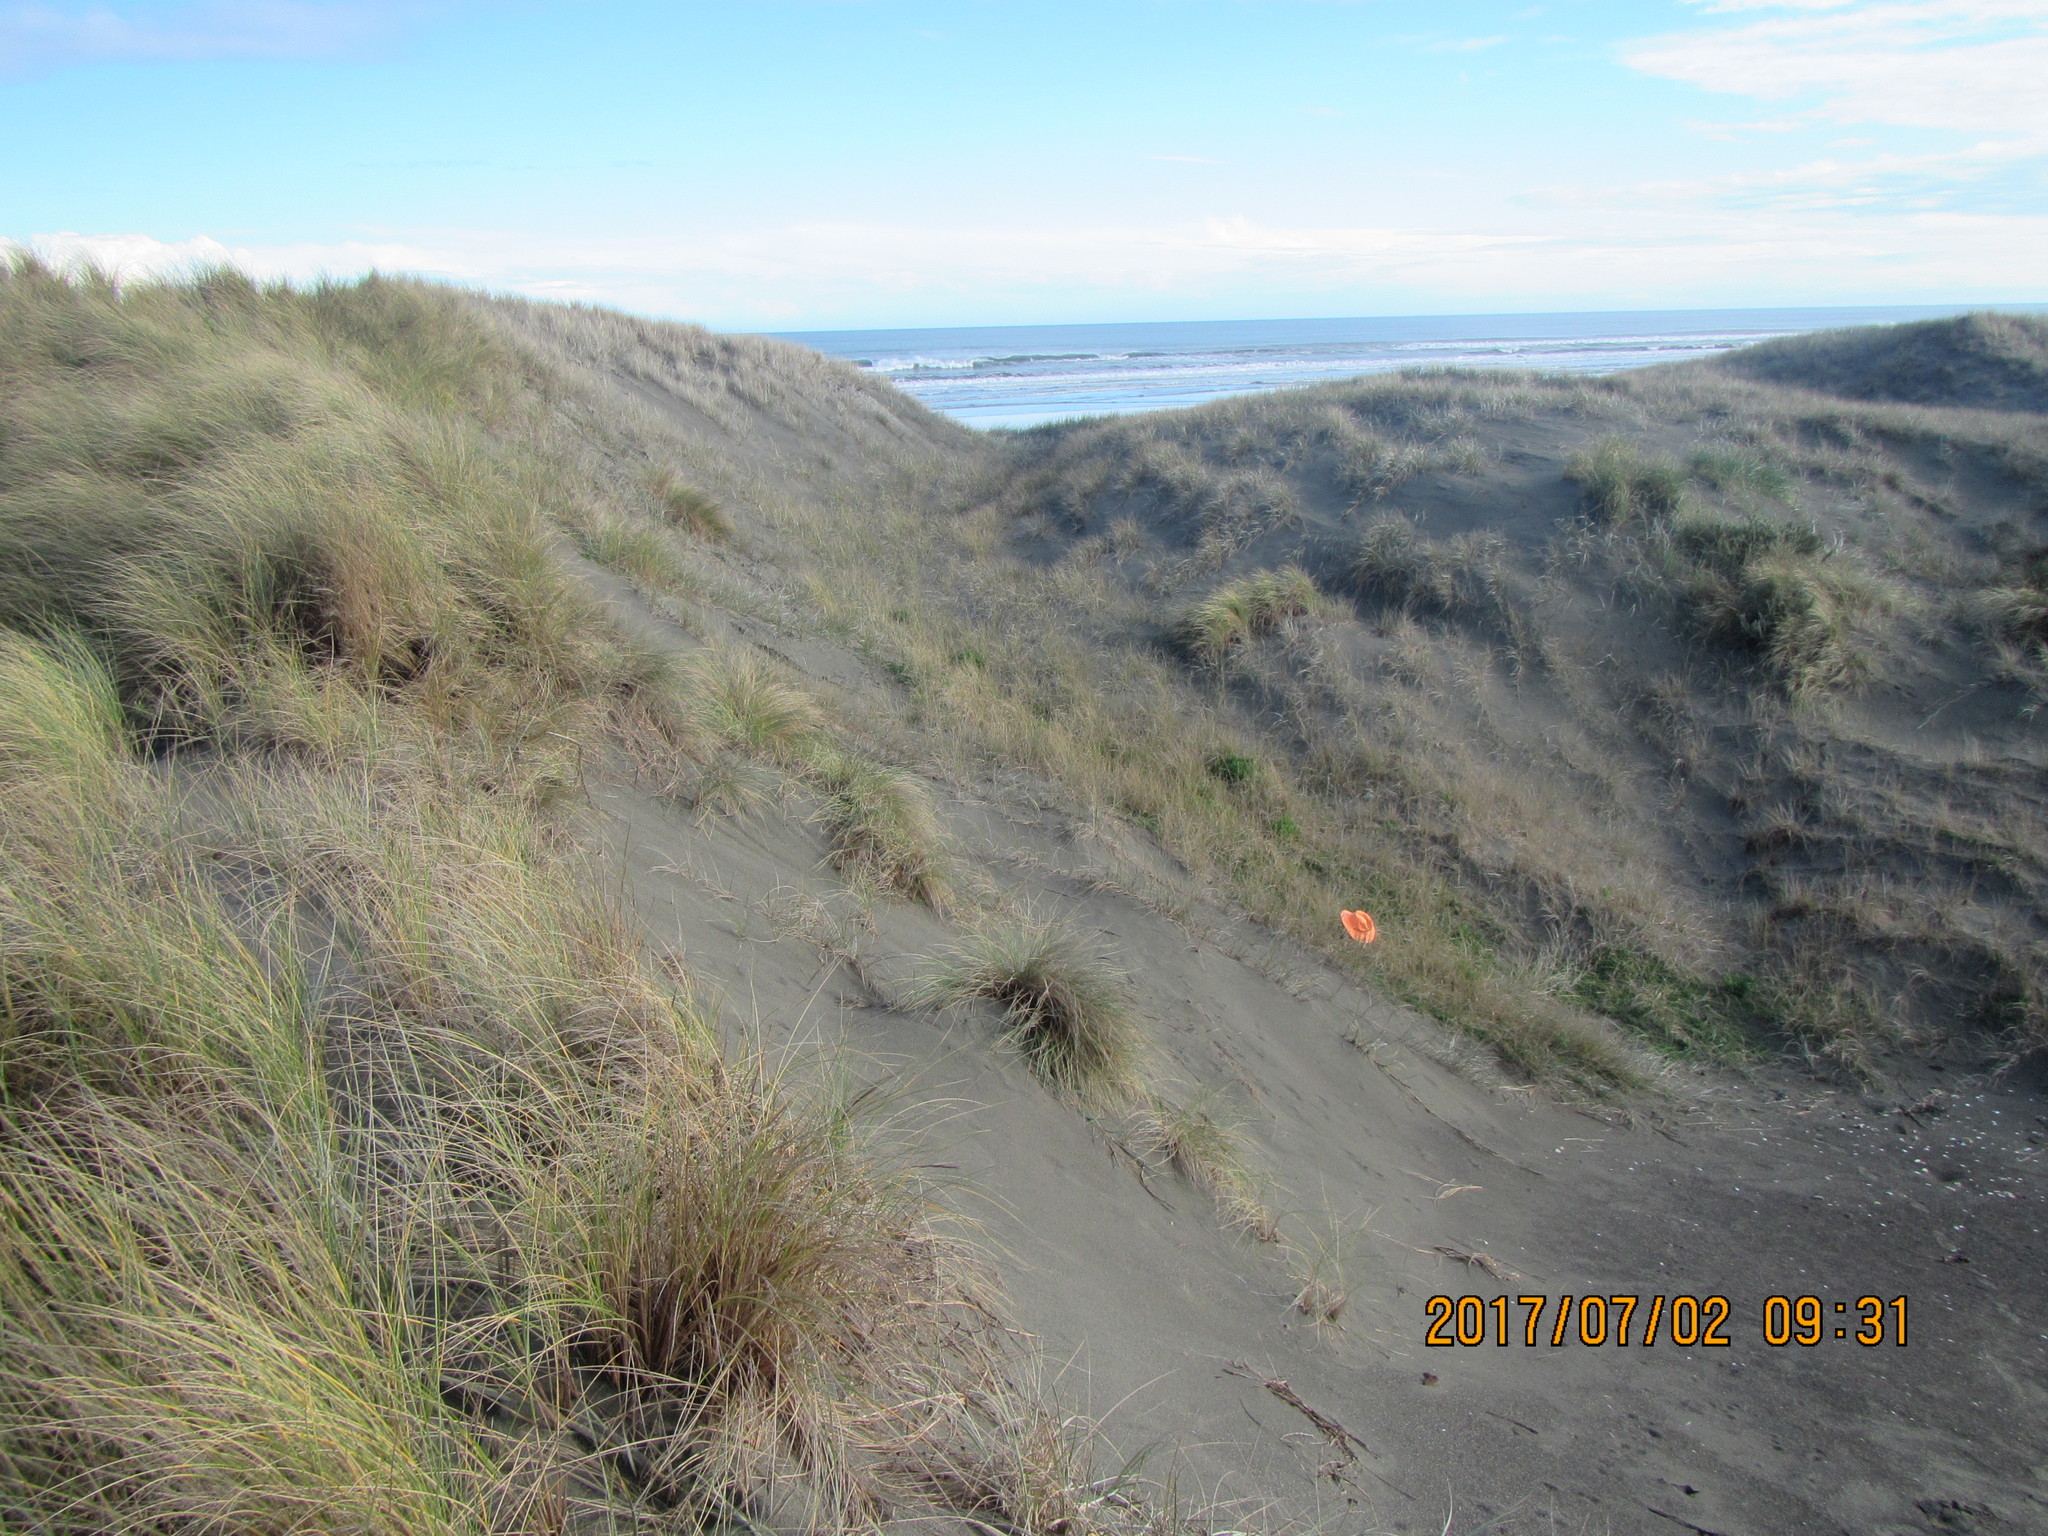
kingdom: Animalia
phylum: Arthropoda
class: Arachnida
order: Araneae
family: Theridiidae
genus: Latrodectus
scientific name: Latrodectus katipo
